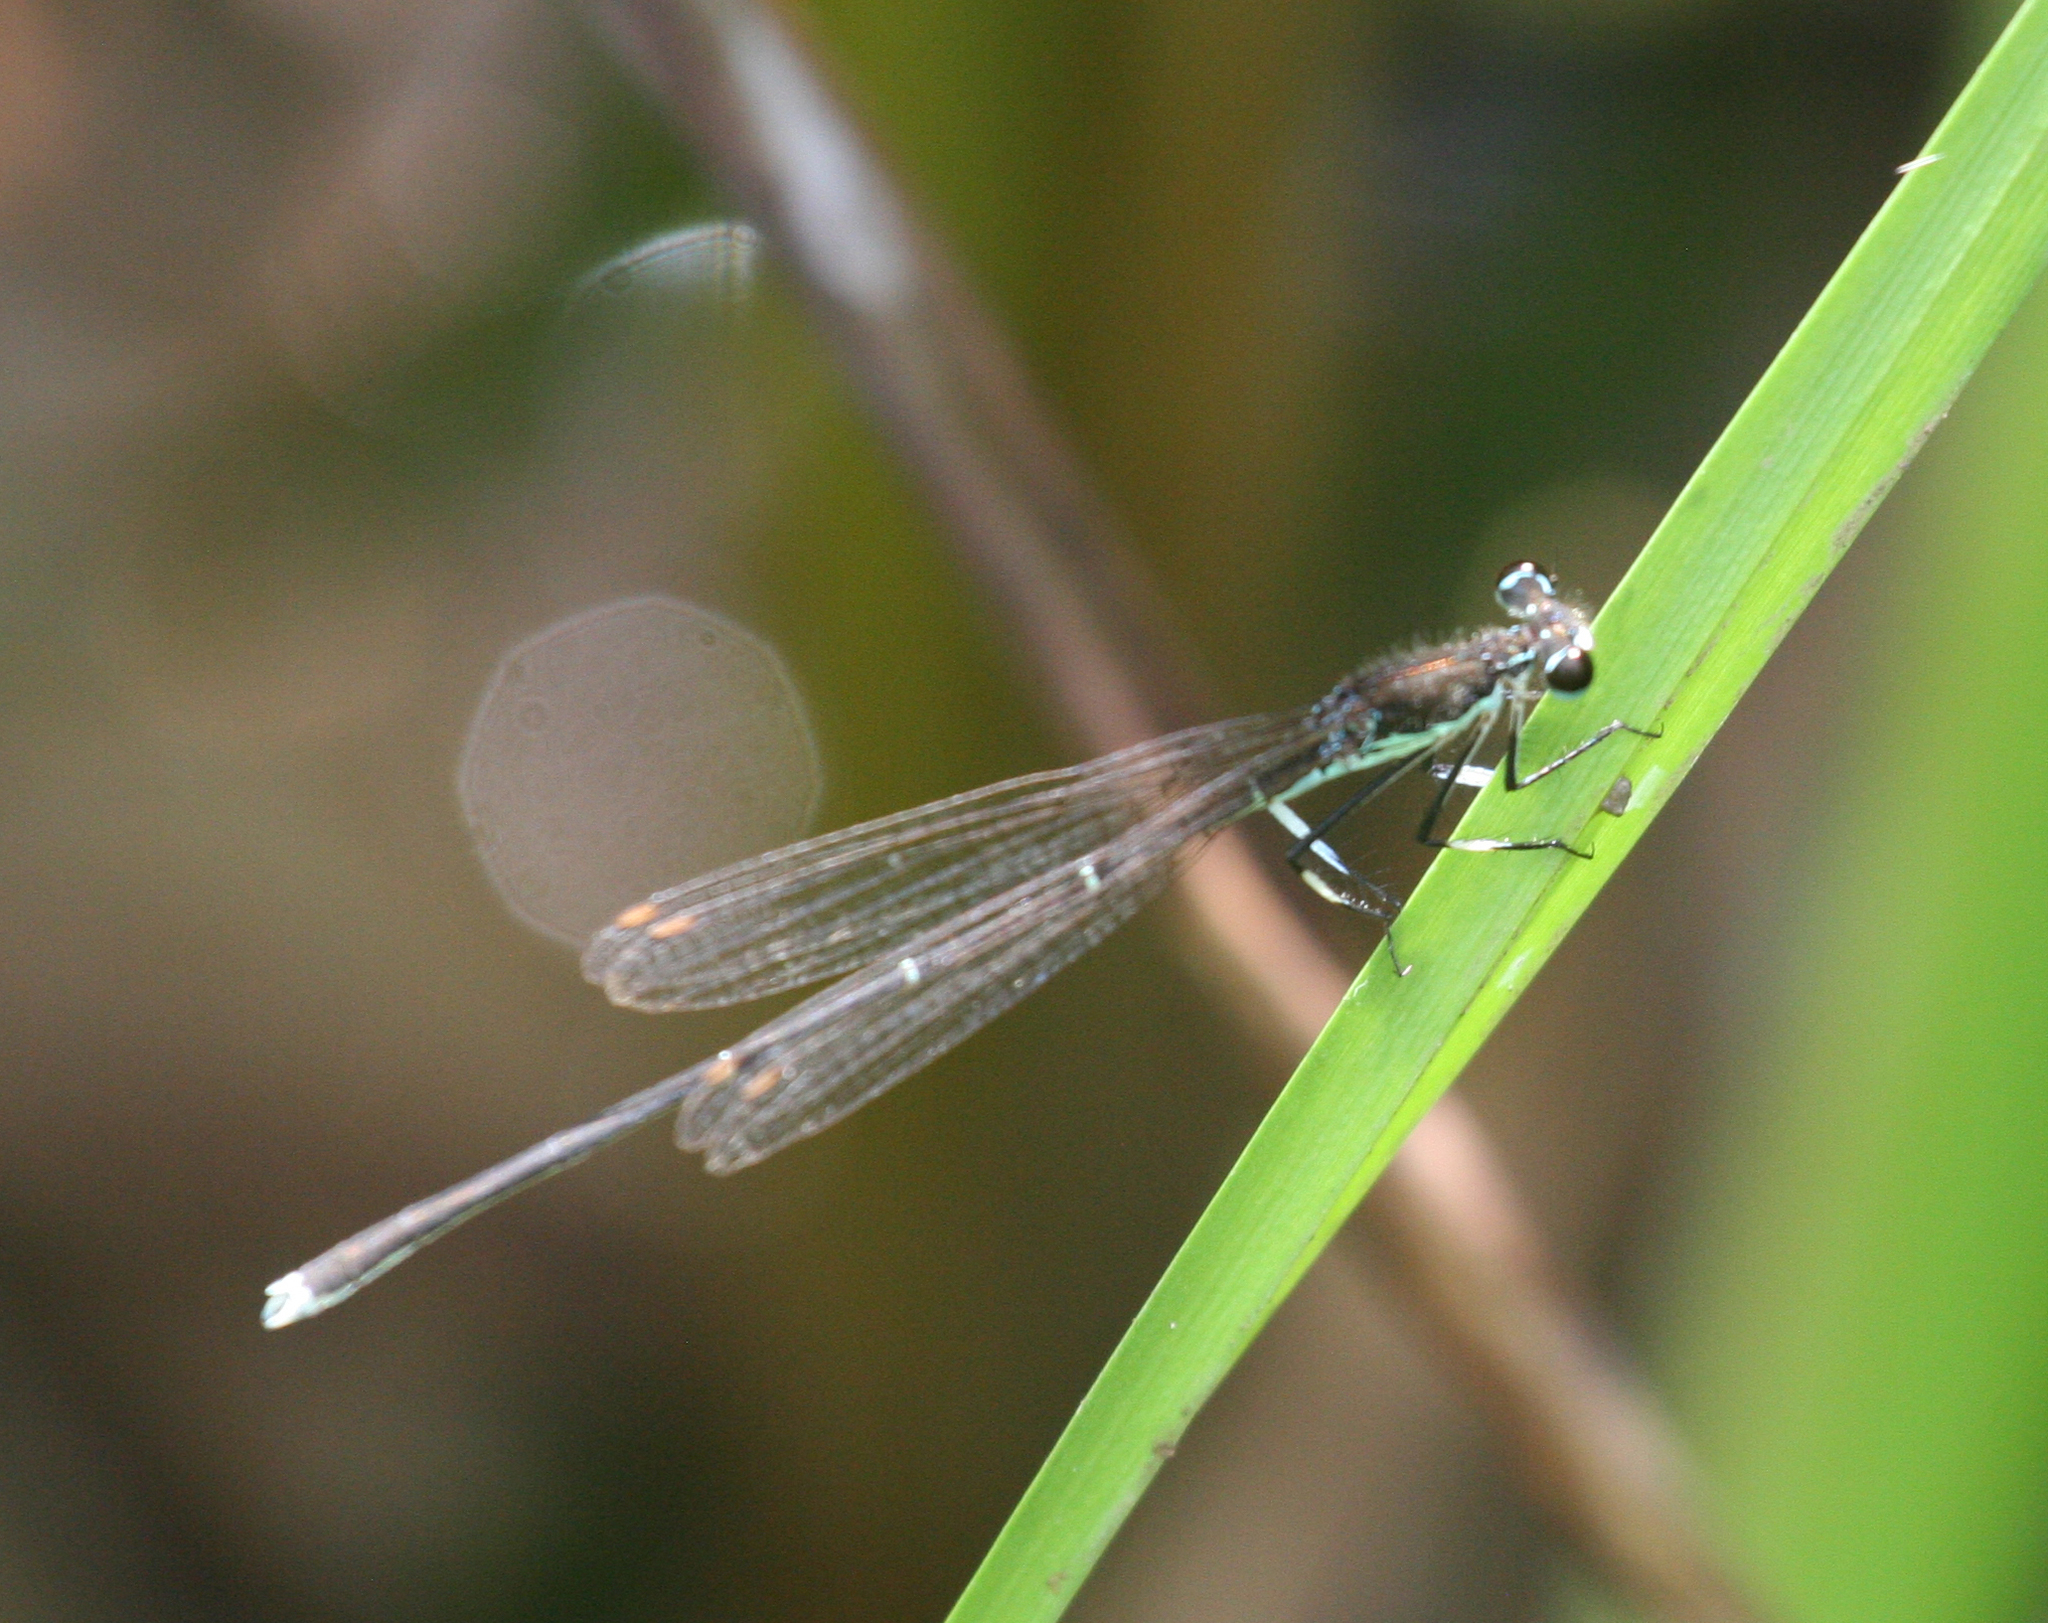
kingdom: Animalia
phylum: Arthropoda
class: Insecta
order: Odonata
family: Platycnemididae
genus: Pseudocopera
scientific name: Pseudocopera rubripes
